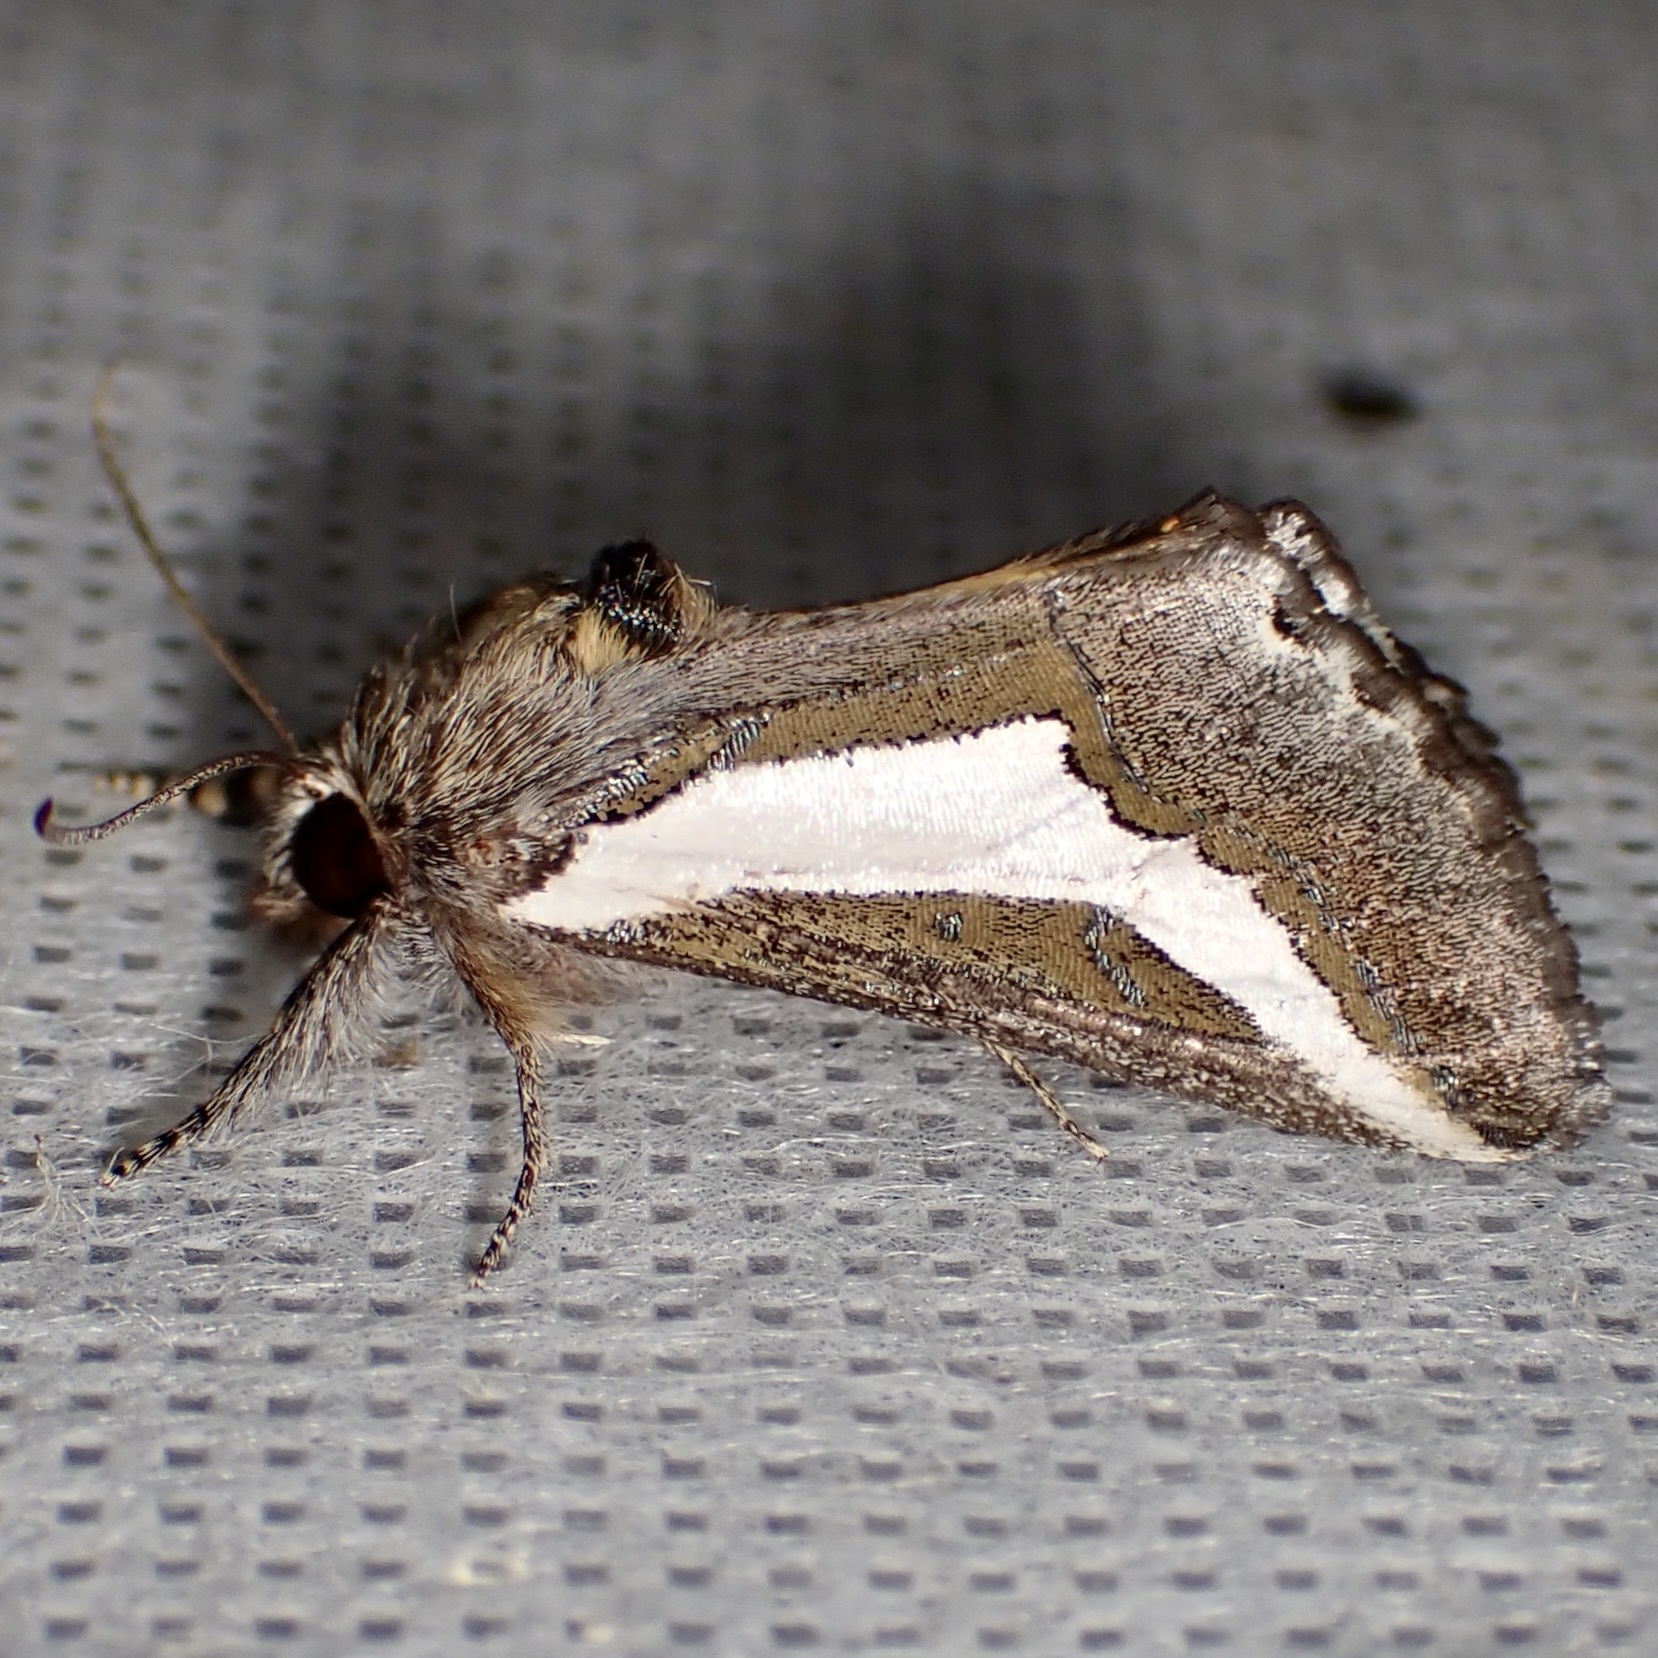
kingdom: Animalia
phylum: Arthropoda
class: Insecta
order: Lepidoptera
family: Noctuidae
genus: Euscirrhopterus
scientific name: Euscirrhopterus cosyra
